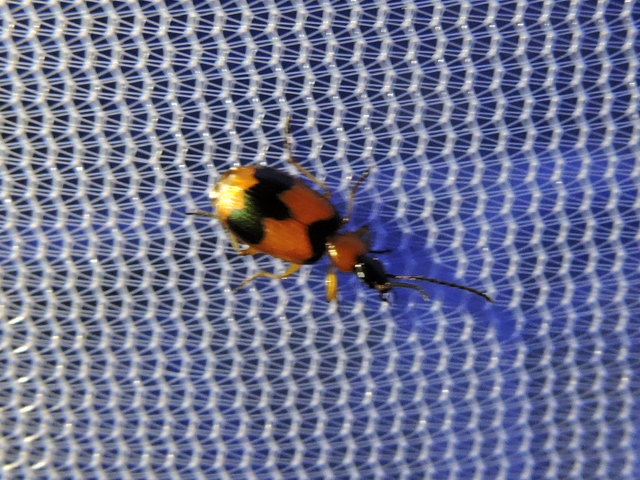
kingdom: Animalia
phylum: Arthropoda
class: Insecta
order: Coleoptera
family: Carabidae
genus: Lebia
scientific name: Lebia pulchella
